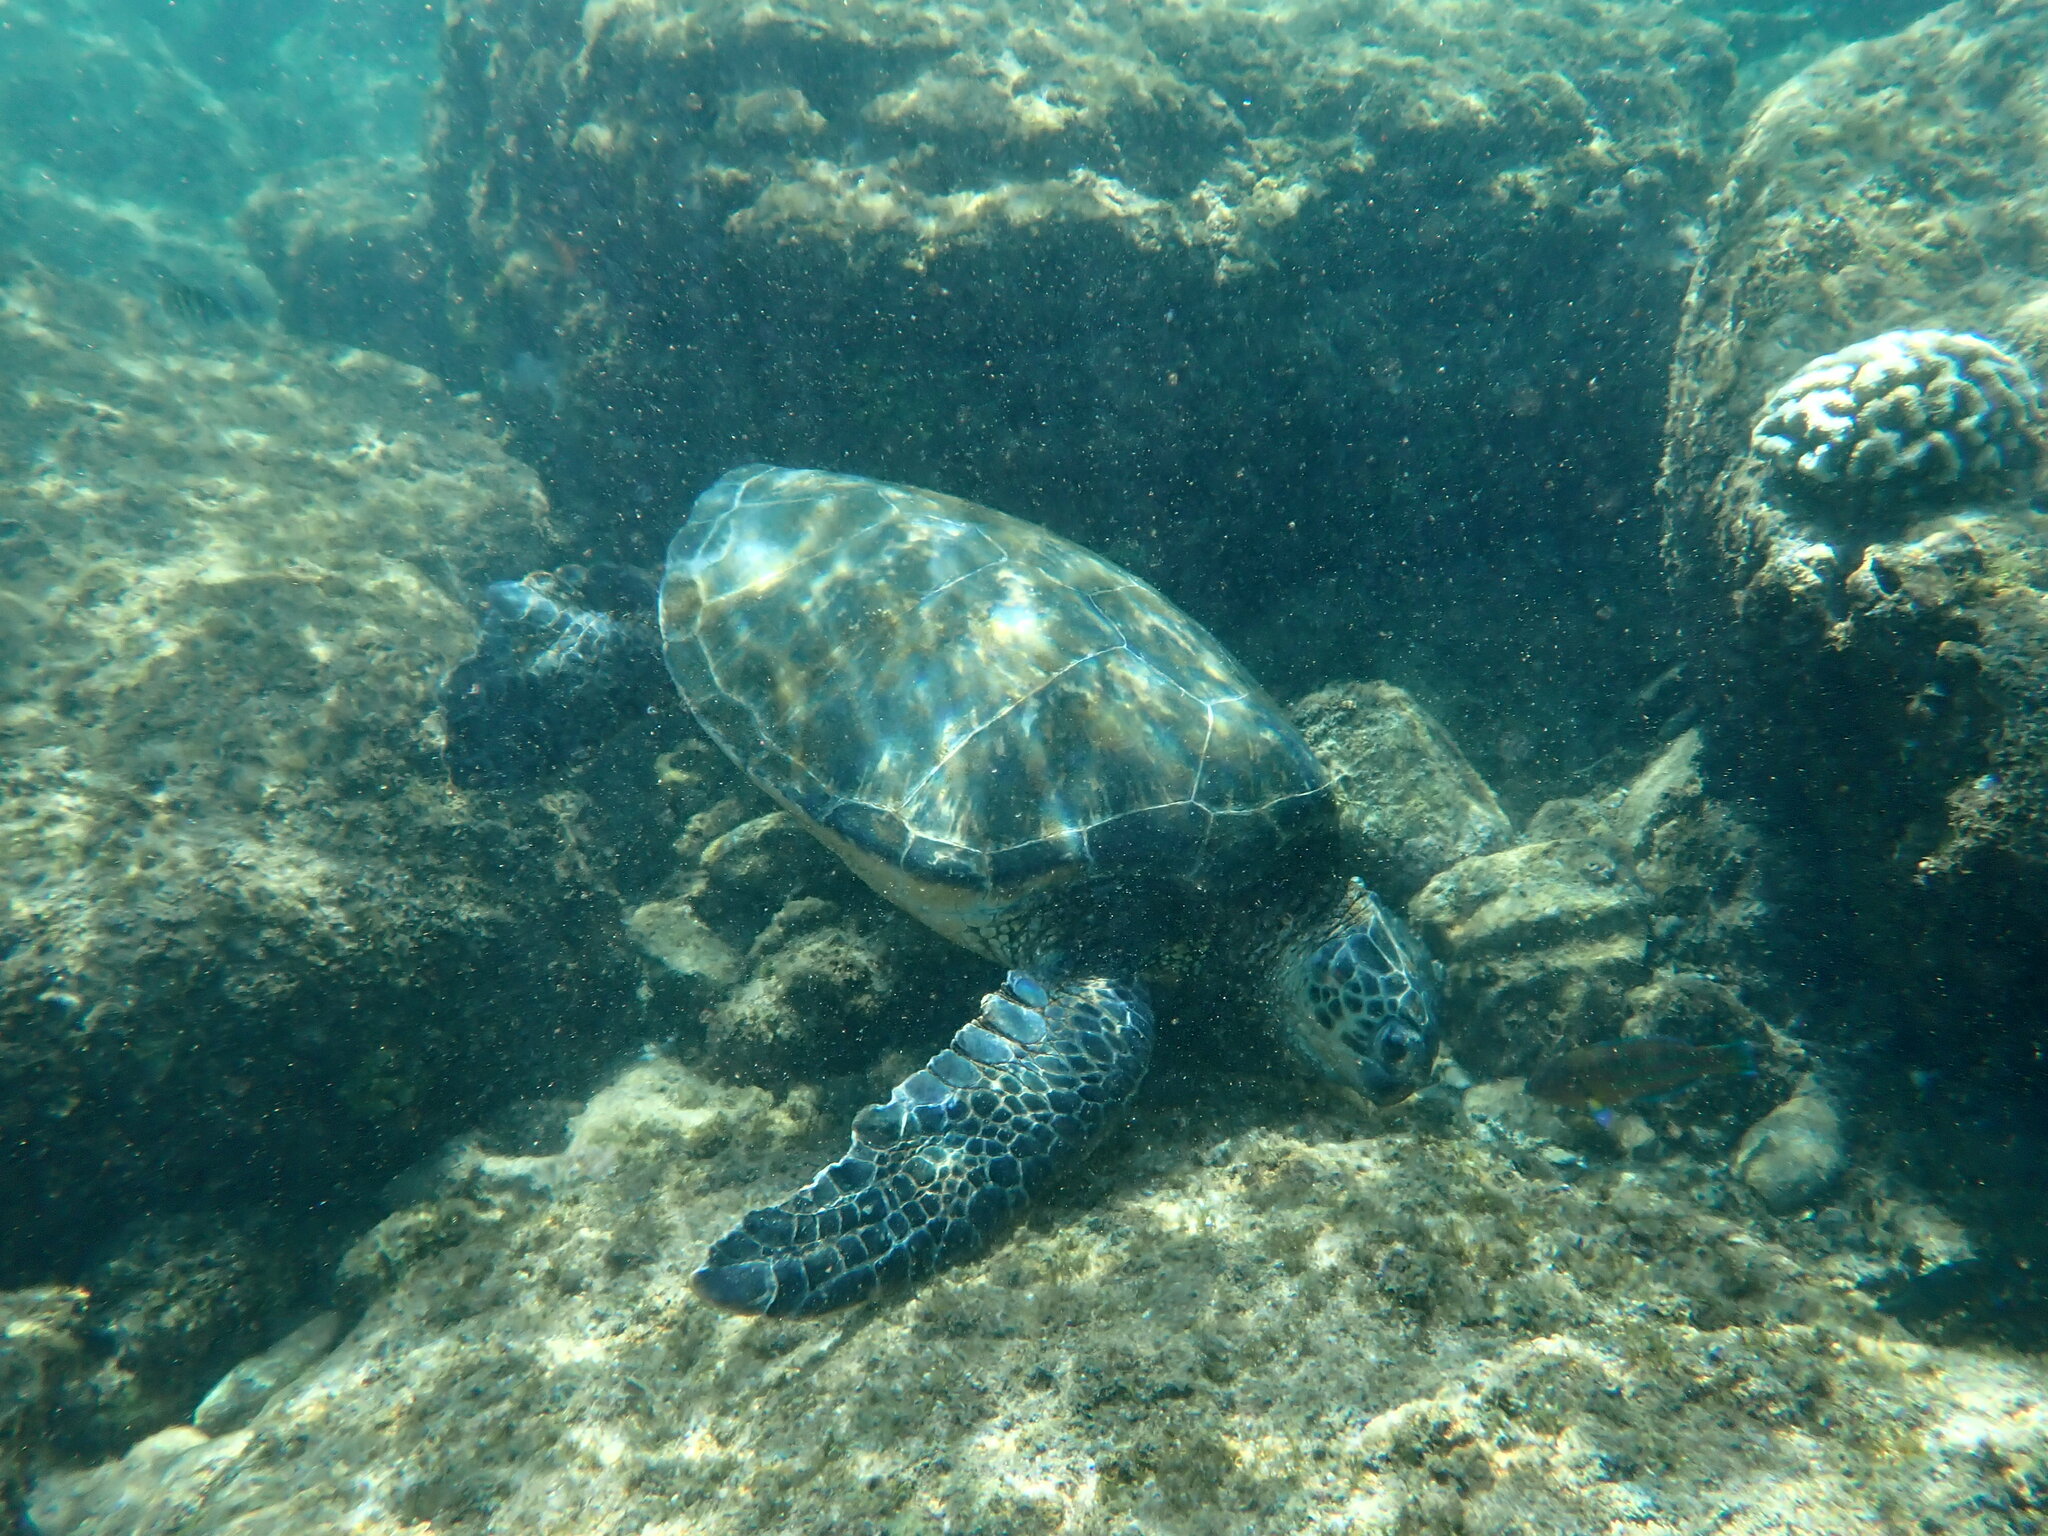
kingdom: Animalia
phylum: Chordata
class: Testudines
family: Cheloniidae
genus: Chelonia
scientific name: Chelonia mydas
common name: Green turtle
